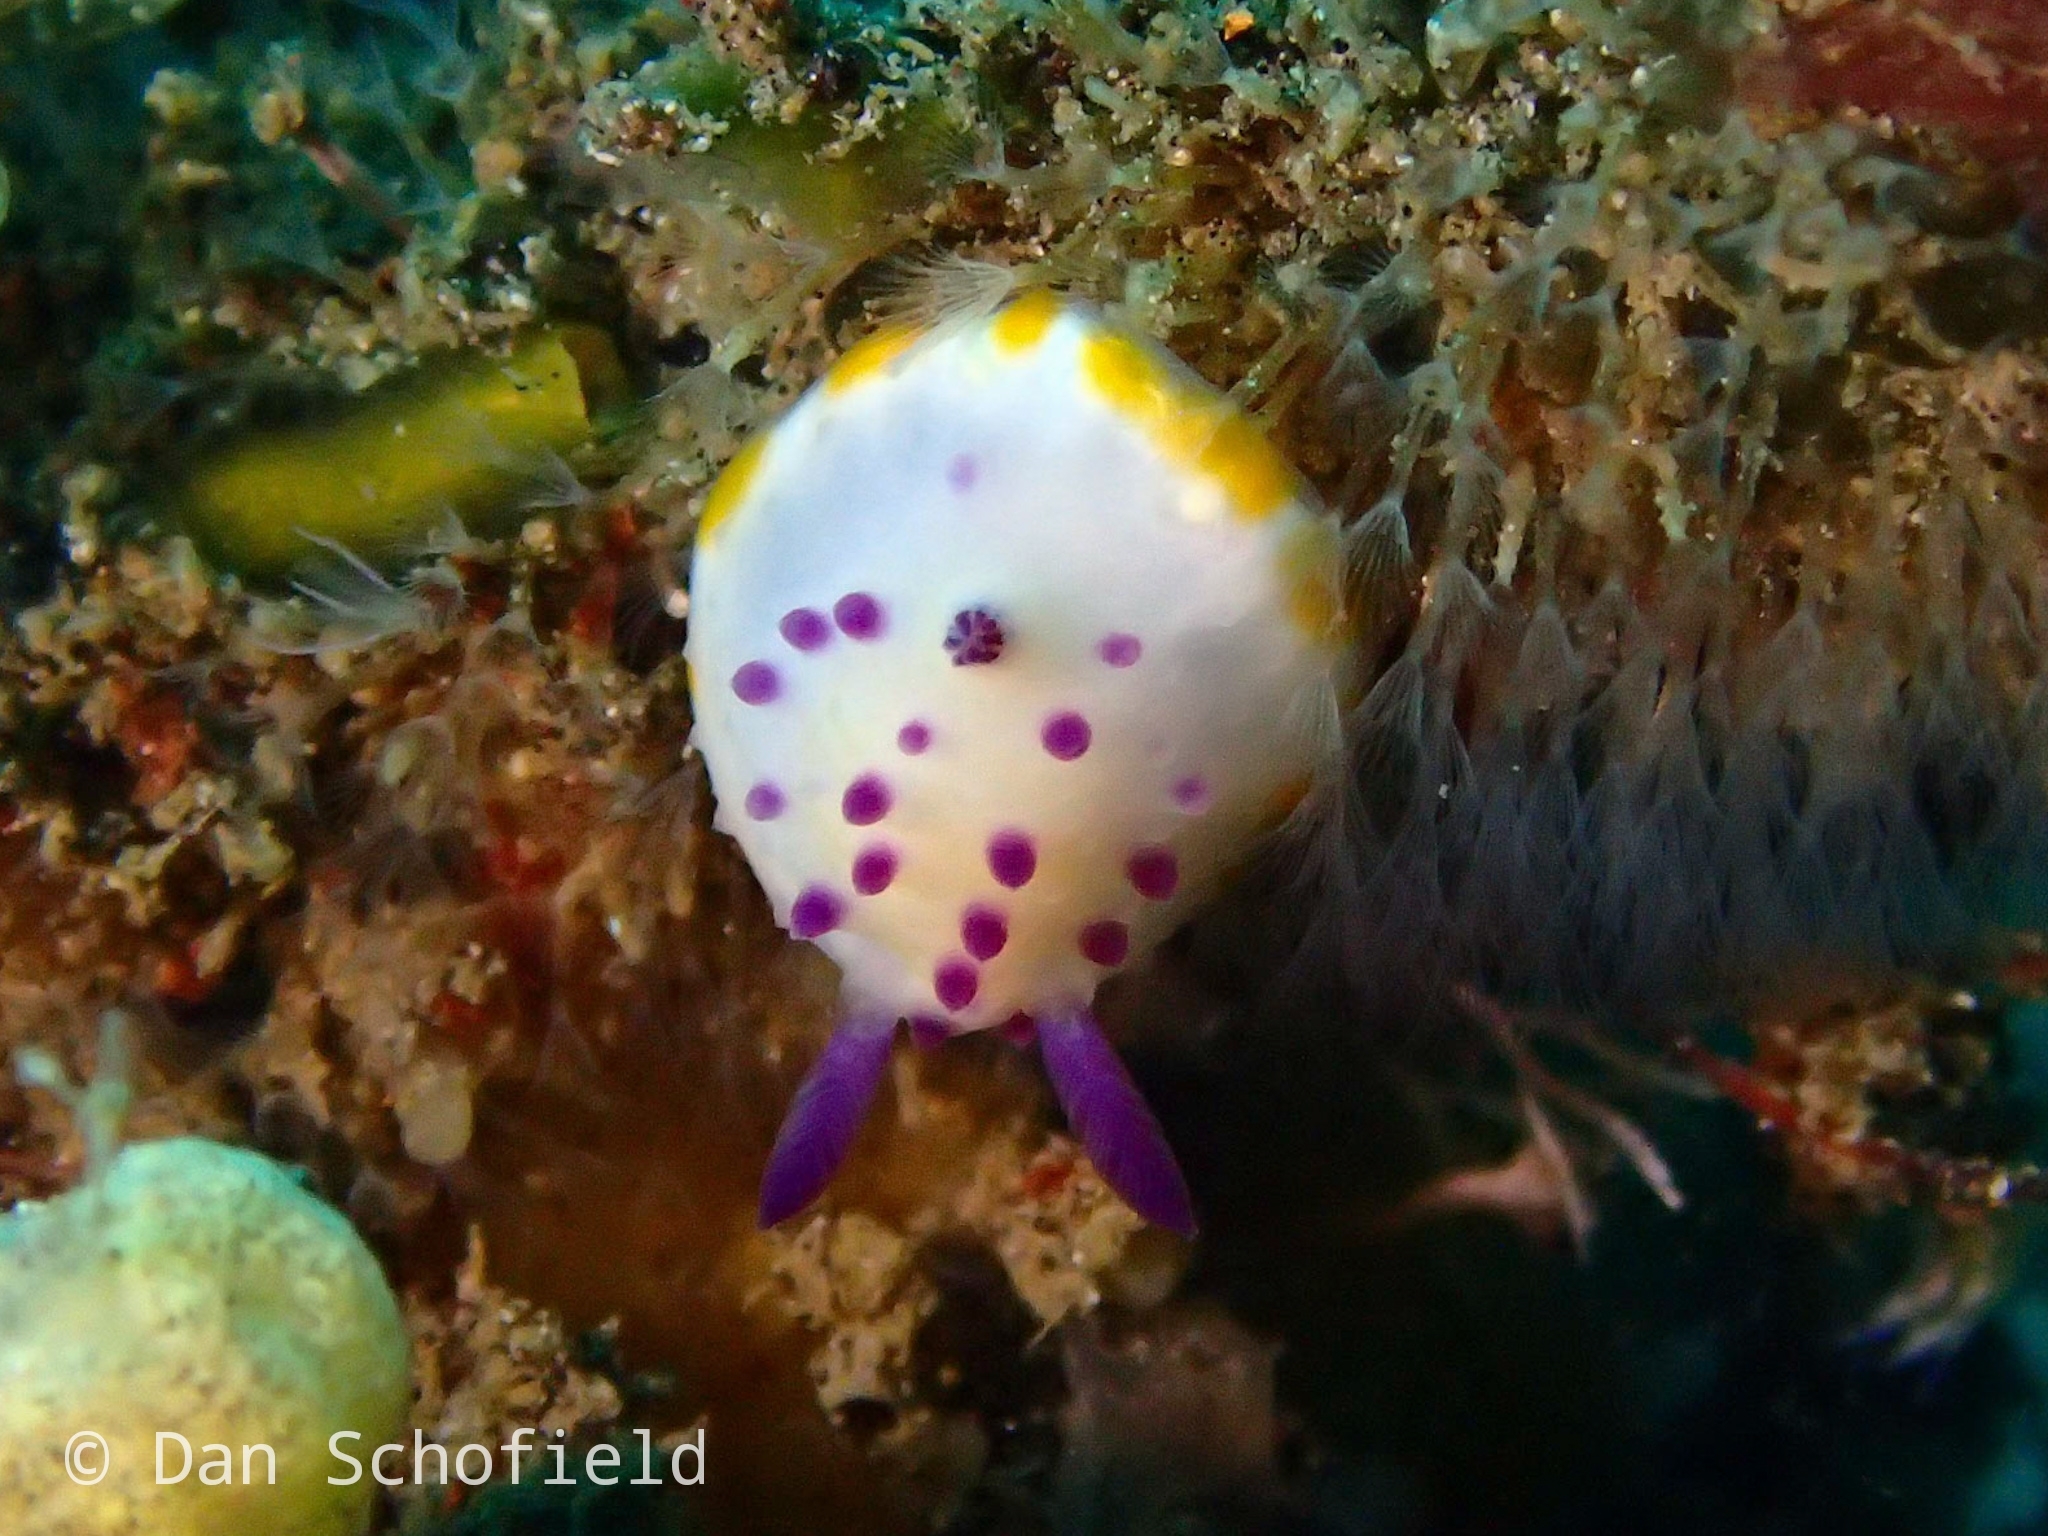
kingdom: Animalia
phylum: Mollusca
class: Gastropoda
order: Nudibranchia
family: Chromodorididae
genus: Mexichromis
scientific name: Mexichromis mariei
